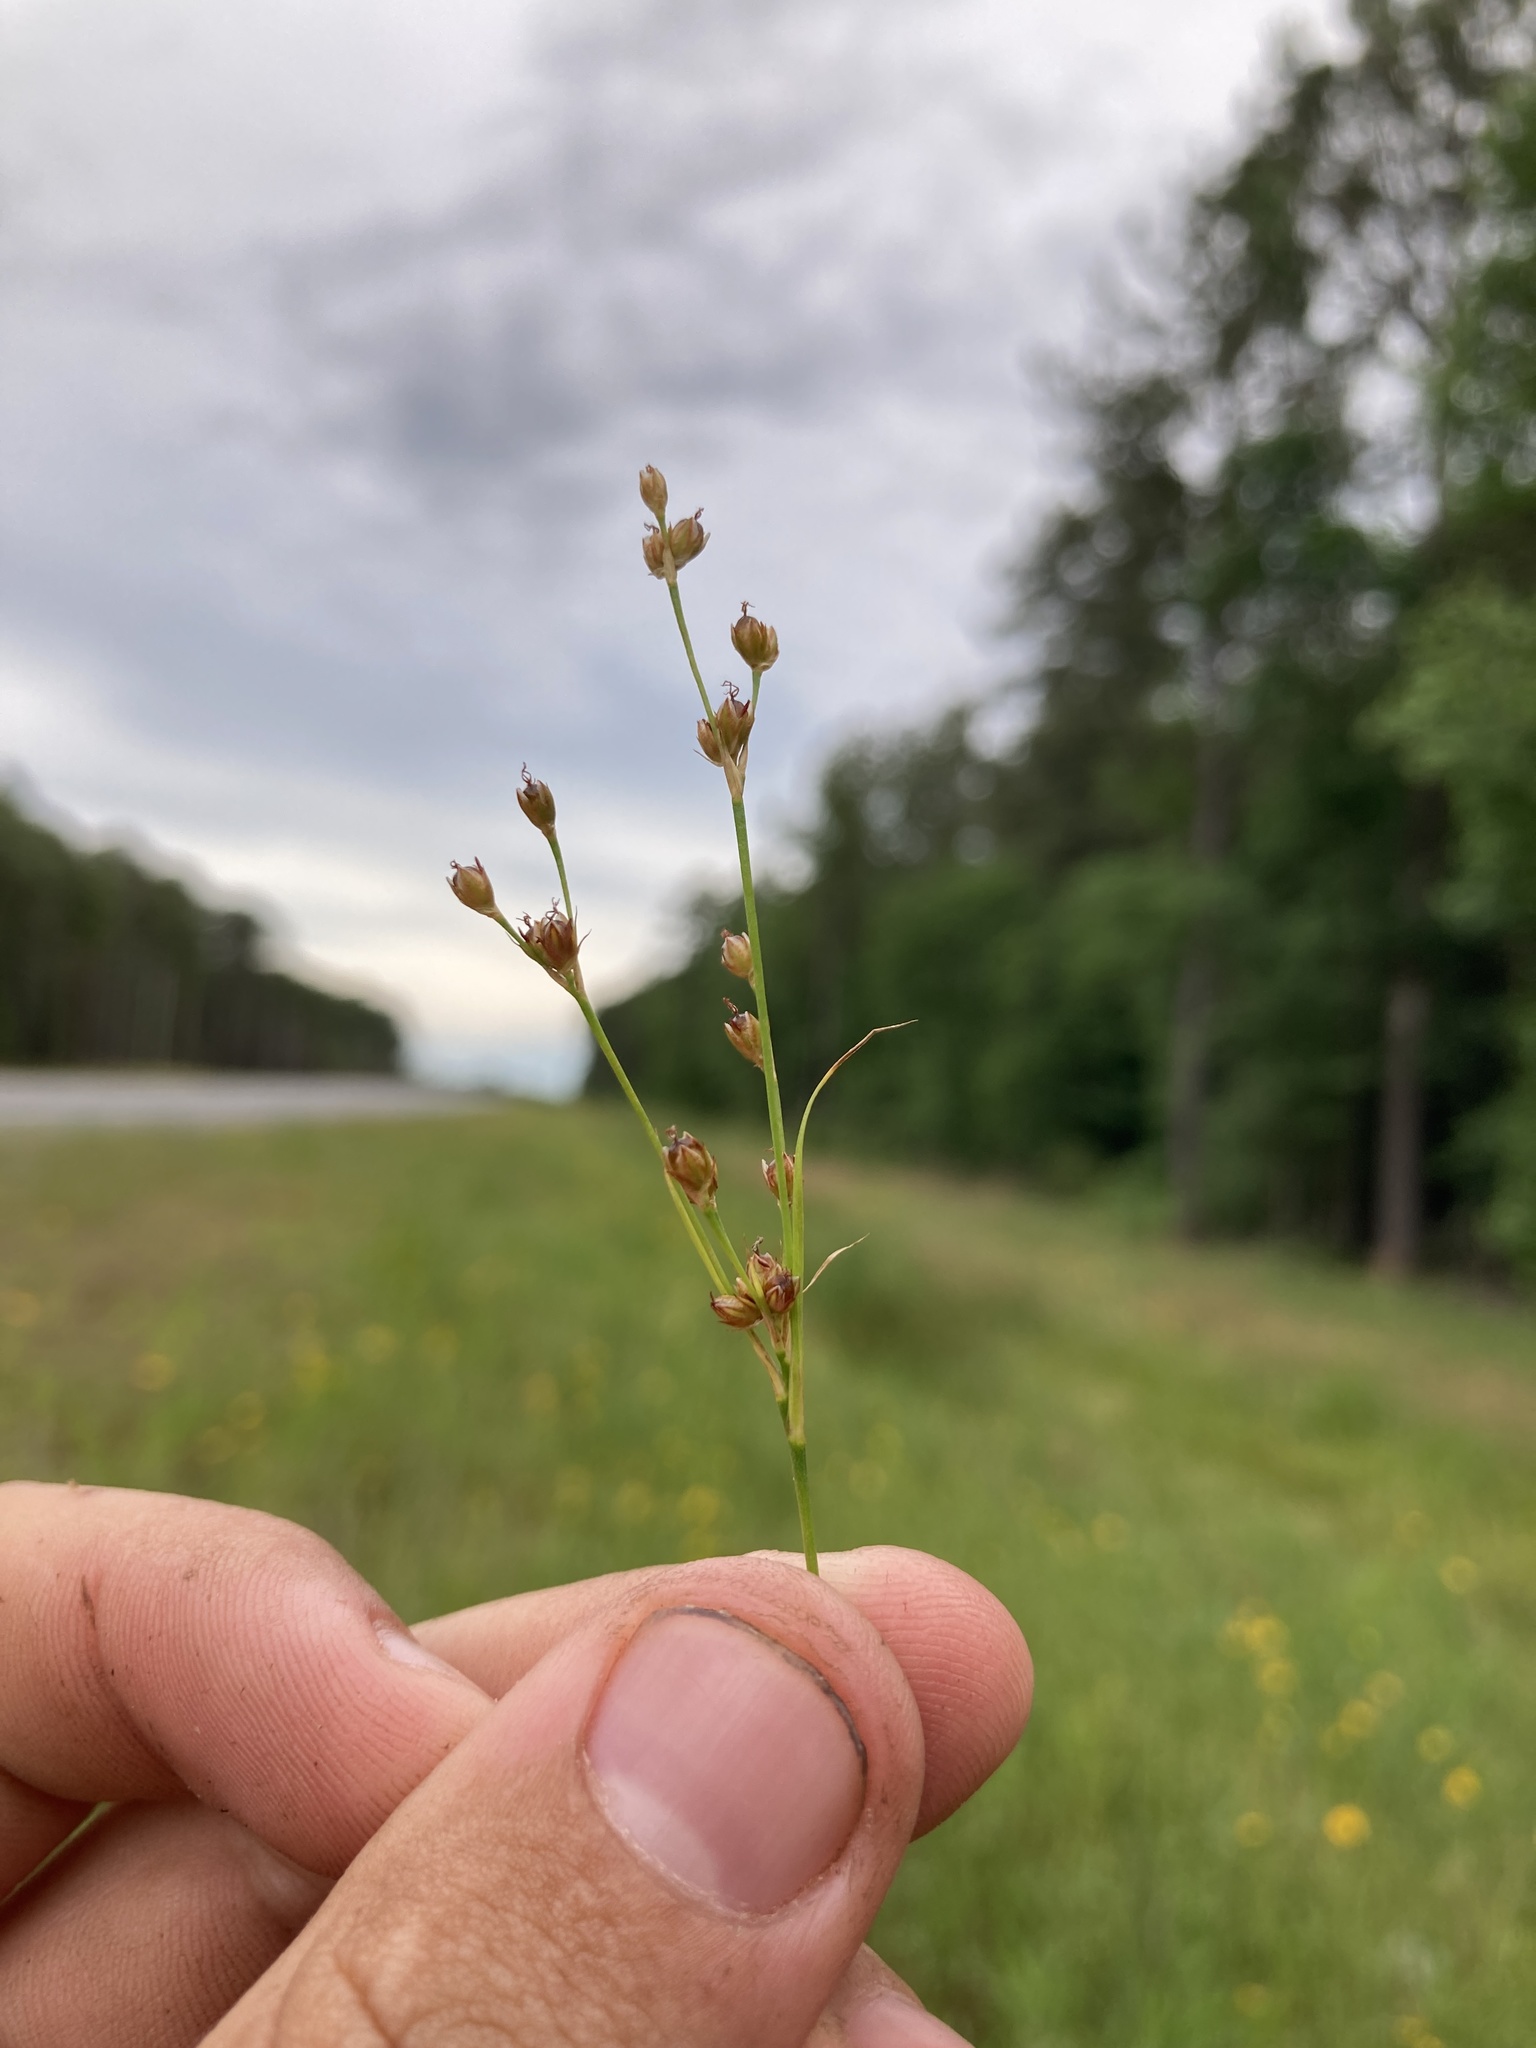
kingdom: Plantae
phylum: Tracheophyta
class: Liliopsida
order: Poales
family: Juncaceae
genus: Juncus
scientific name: Juncus marginatus
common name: Grass-leaf rush
